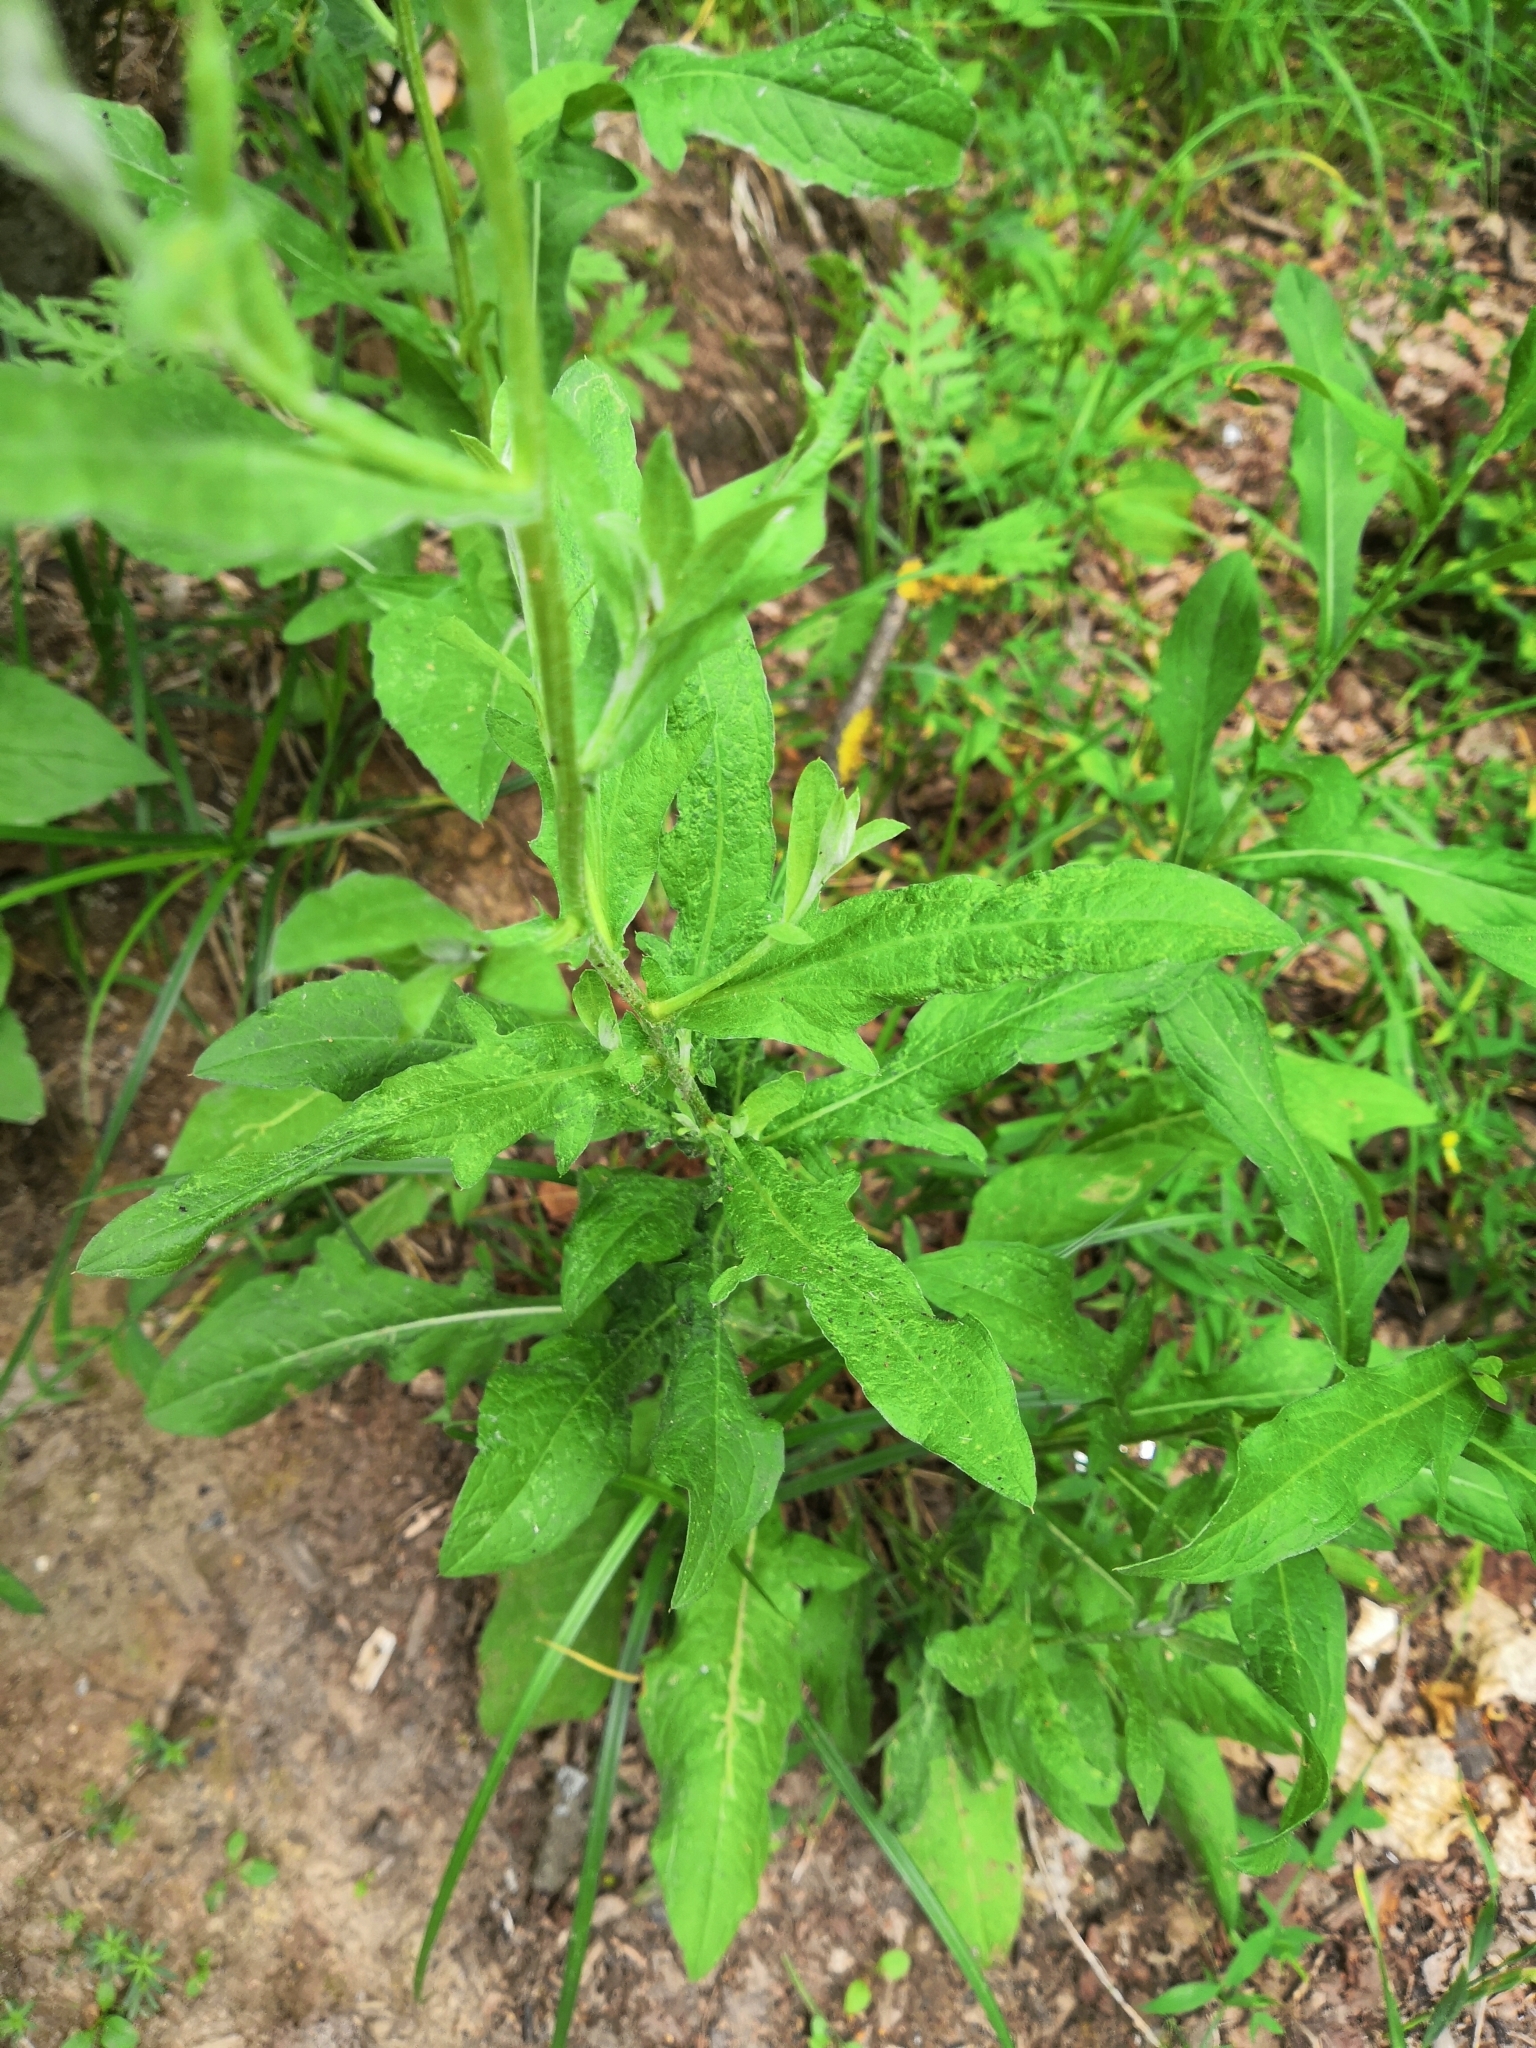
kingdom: Plantae
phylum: Tracheophyta
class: Magnoliopsida
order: Asterales
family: Asteraceae
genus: Centaurea
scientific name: Centaurea jacea
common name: Brown knapweed
